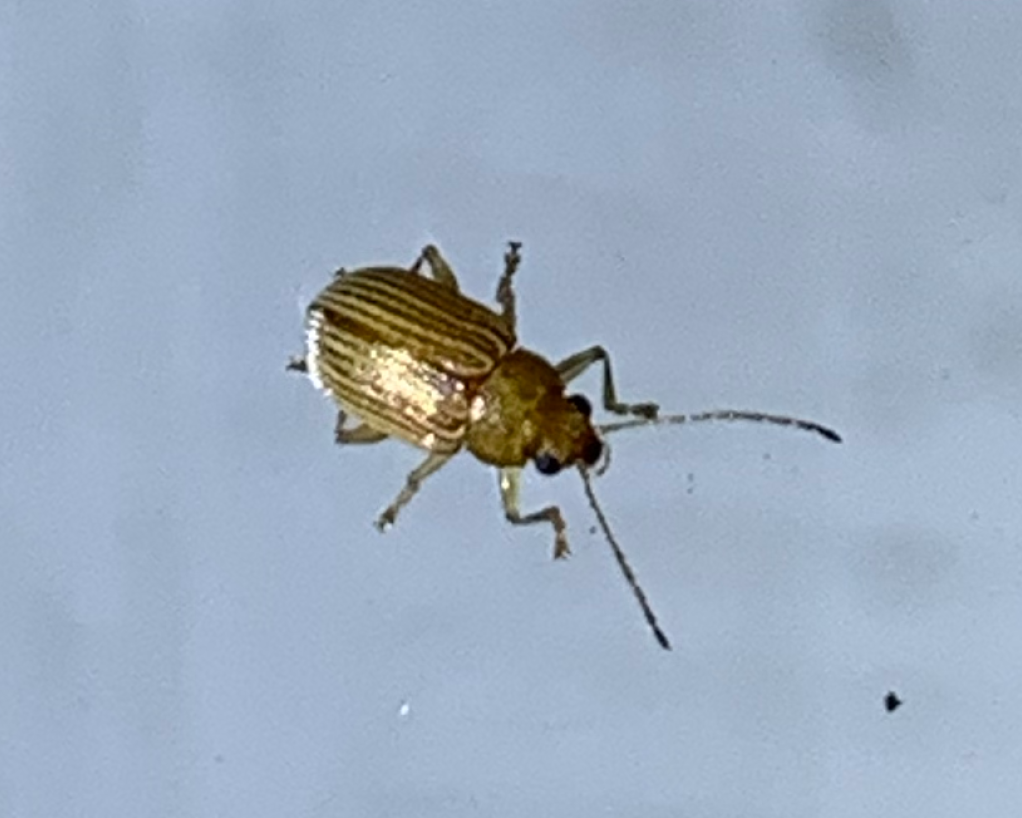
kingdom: Animalia
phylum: Arthropoda
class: Insecta
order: Coleoptera
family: Chrysomelidae
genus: Colaspis
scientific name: Colaspis brunnea
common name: Grape colaspis
